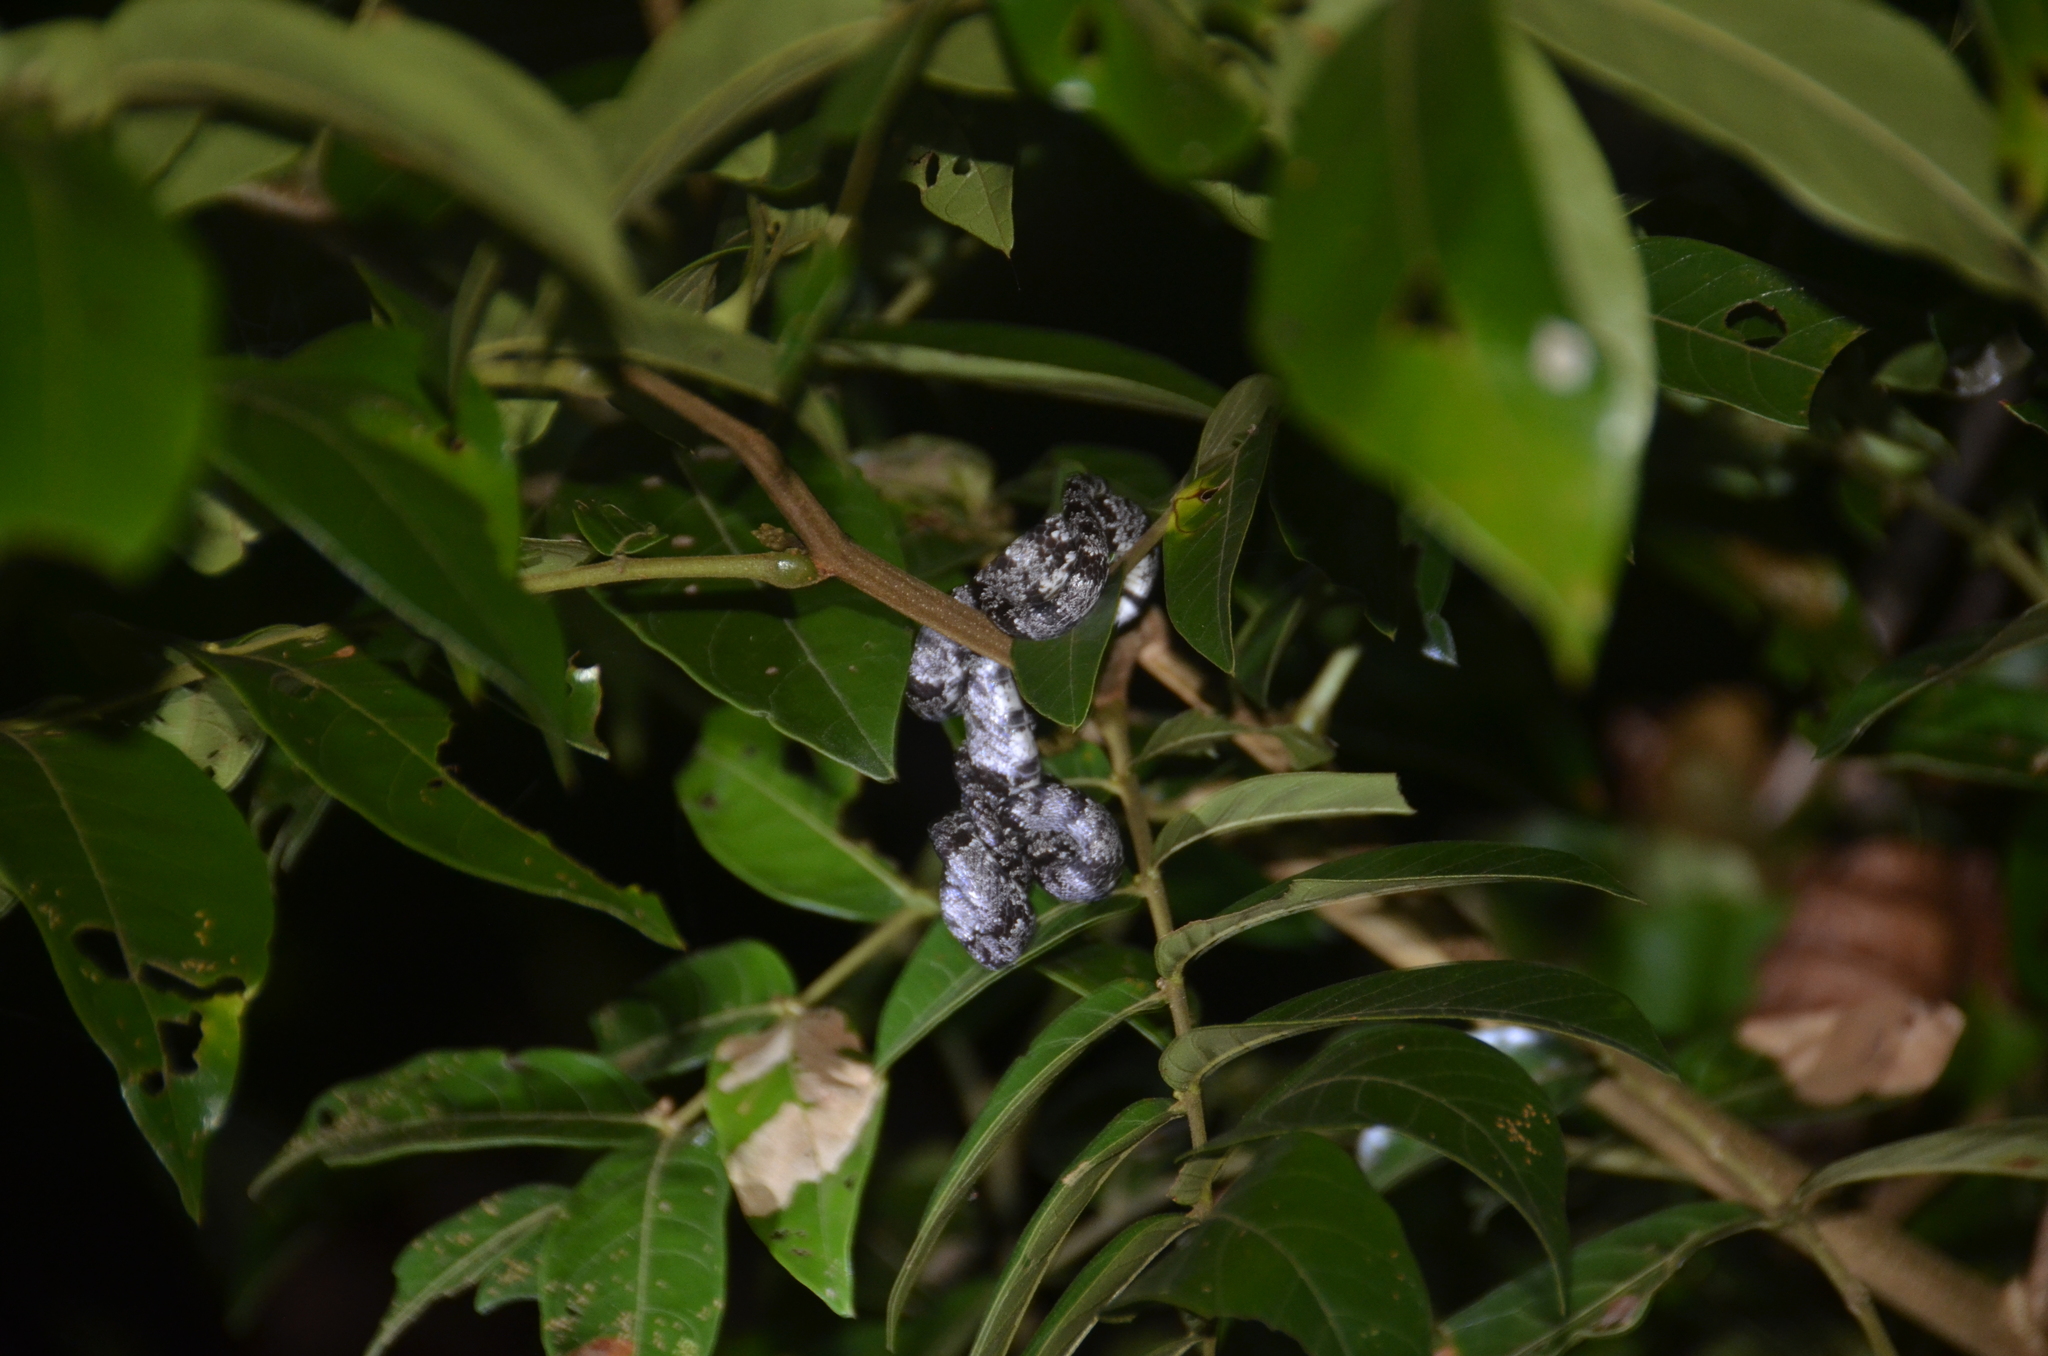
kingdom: Animalia
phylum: Chordata
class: Squamata
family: Colubridae
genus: Sibon
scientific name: Sibon nebulatus
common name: Cloudy snail-eating snake
